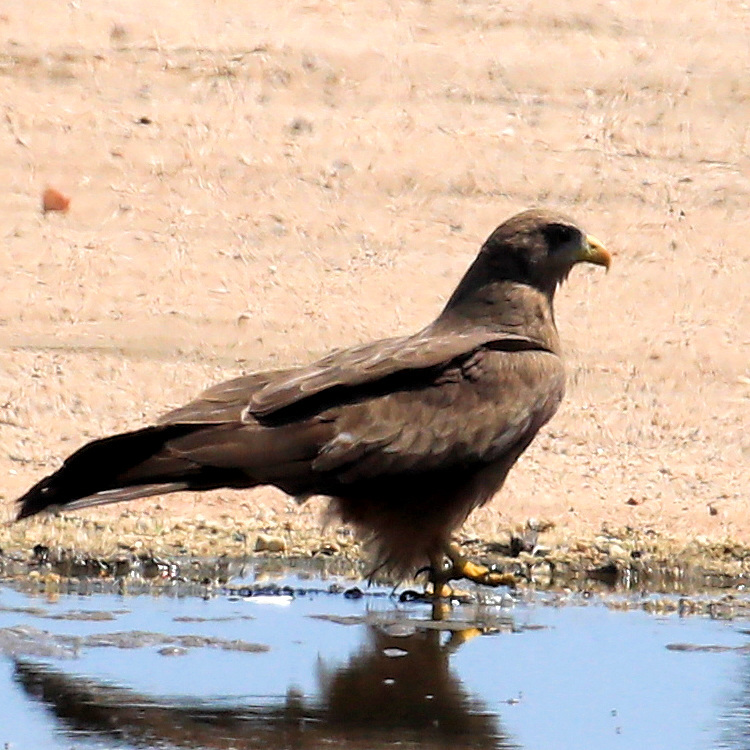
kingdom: Animalia
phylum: Chordata
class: Aves
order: Accipitriformes
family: Accipitridae
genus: Milvus
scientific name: Milvus migrans
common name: Black kite
